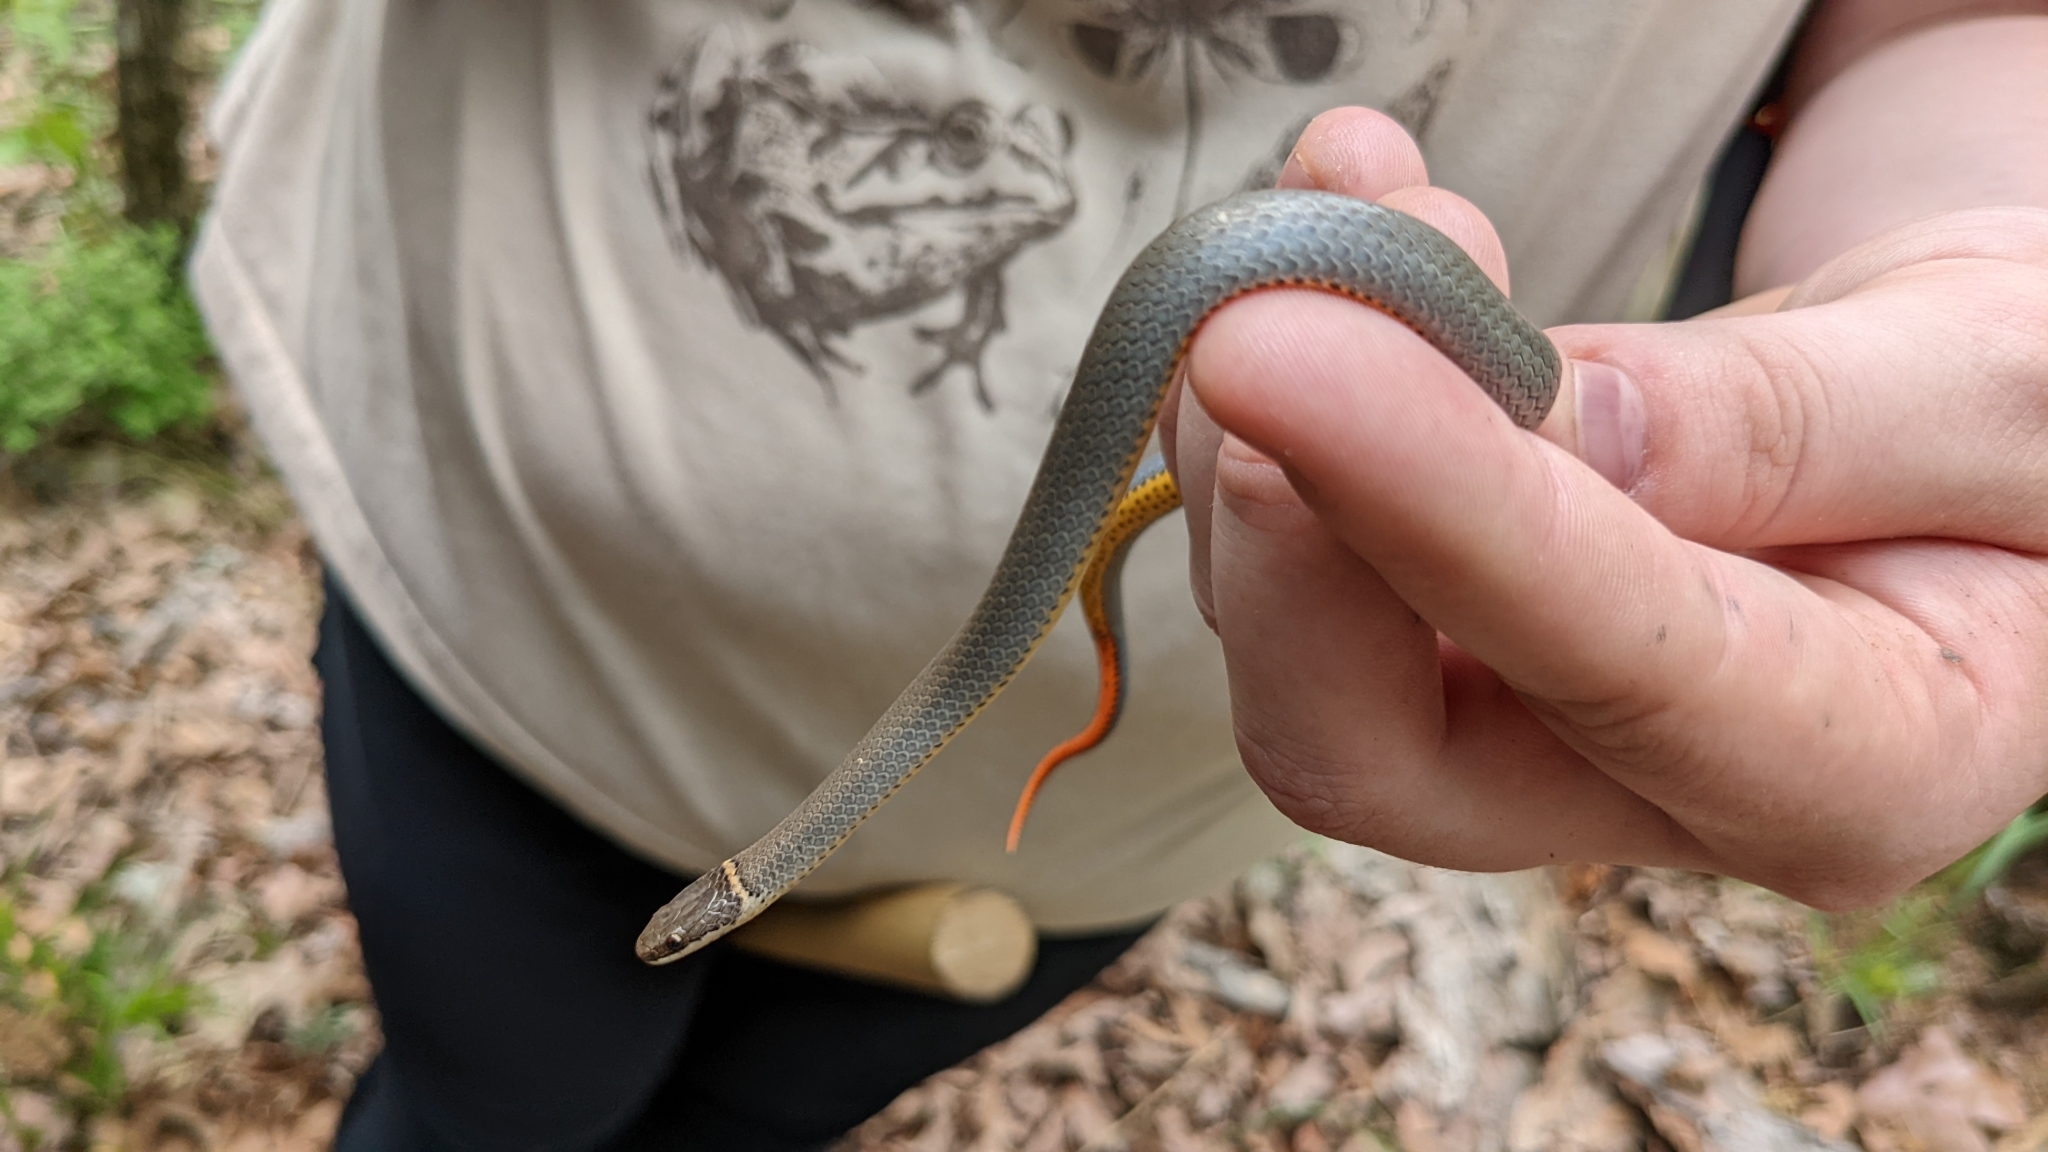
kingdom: Animalia
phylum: Chordata
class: Squamata
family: Colubridae
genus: Diadophis
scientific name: Diadophis punctatus
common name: Ringneck snake
